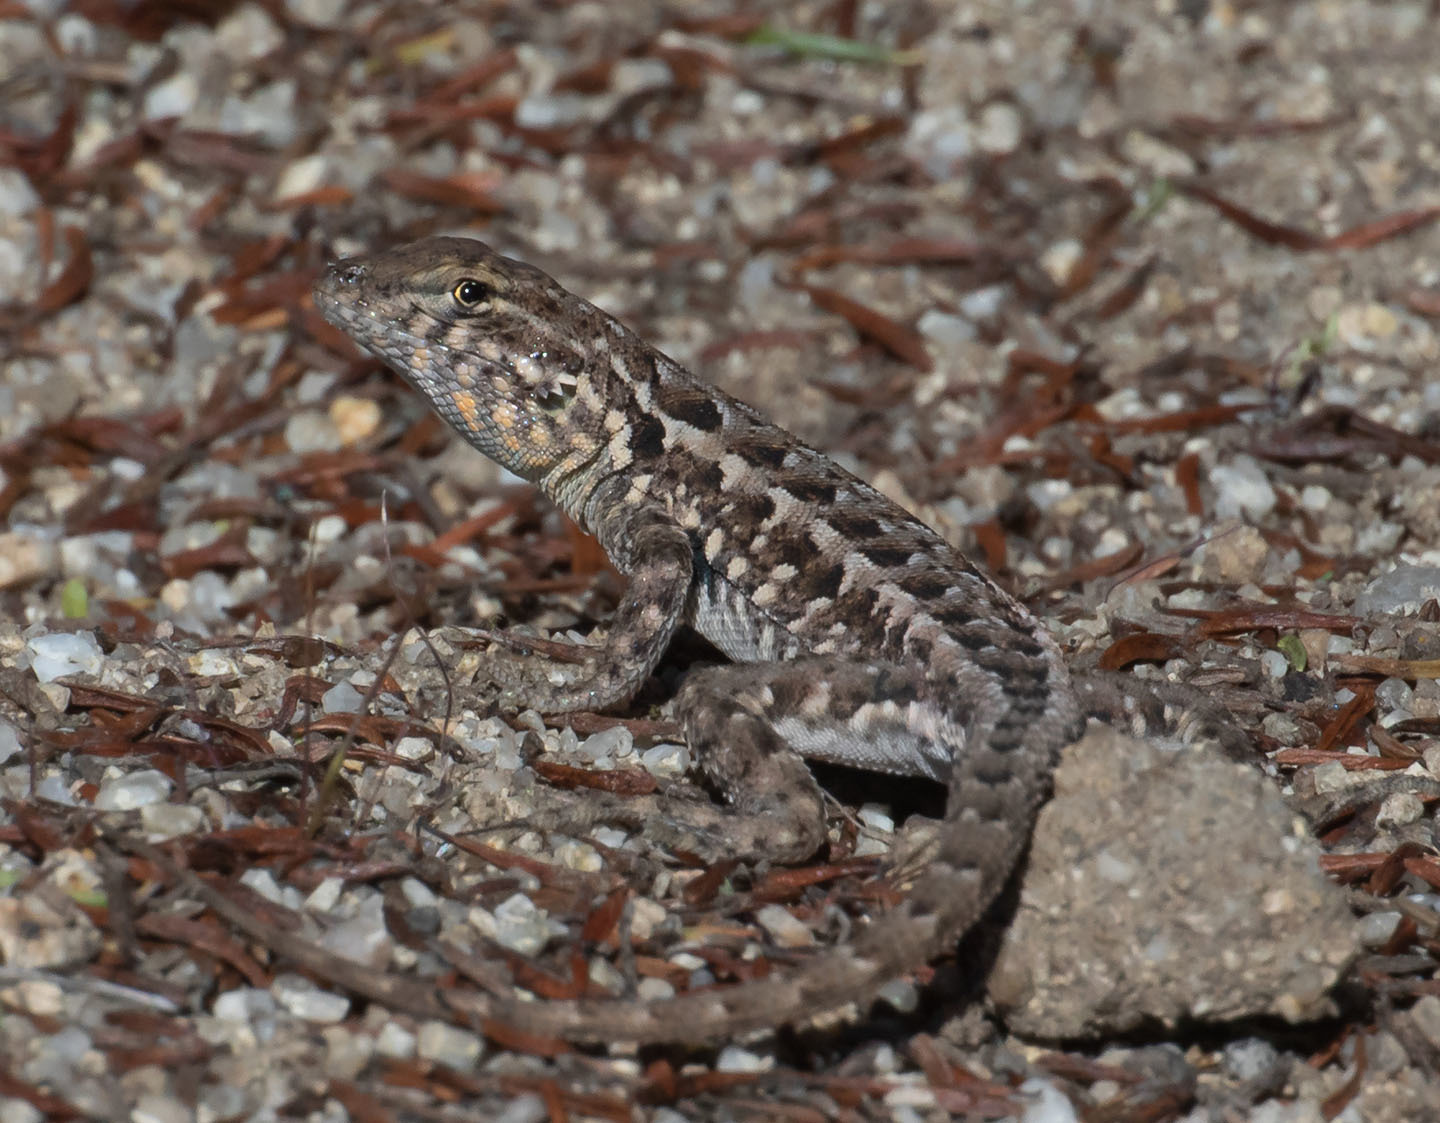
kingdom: Animalia
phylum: Chordata
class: Squamata
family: Phrynosomatidae
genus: Uta
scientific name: Uta stansburiana
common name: Side-blotched lizard
